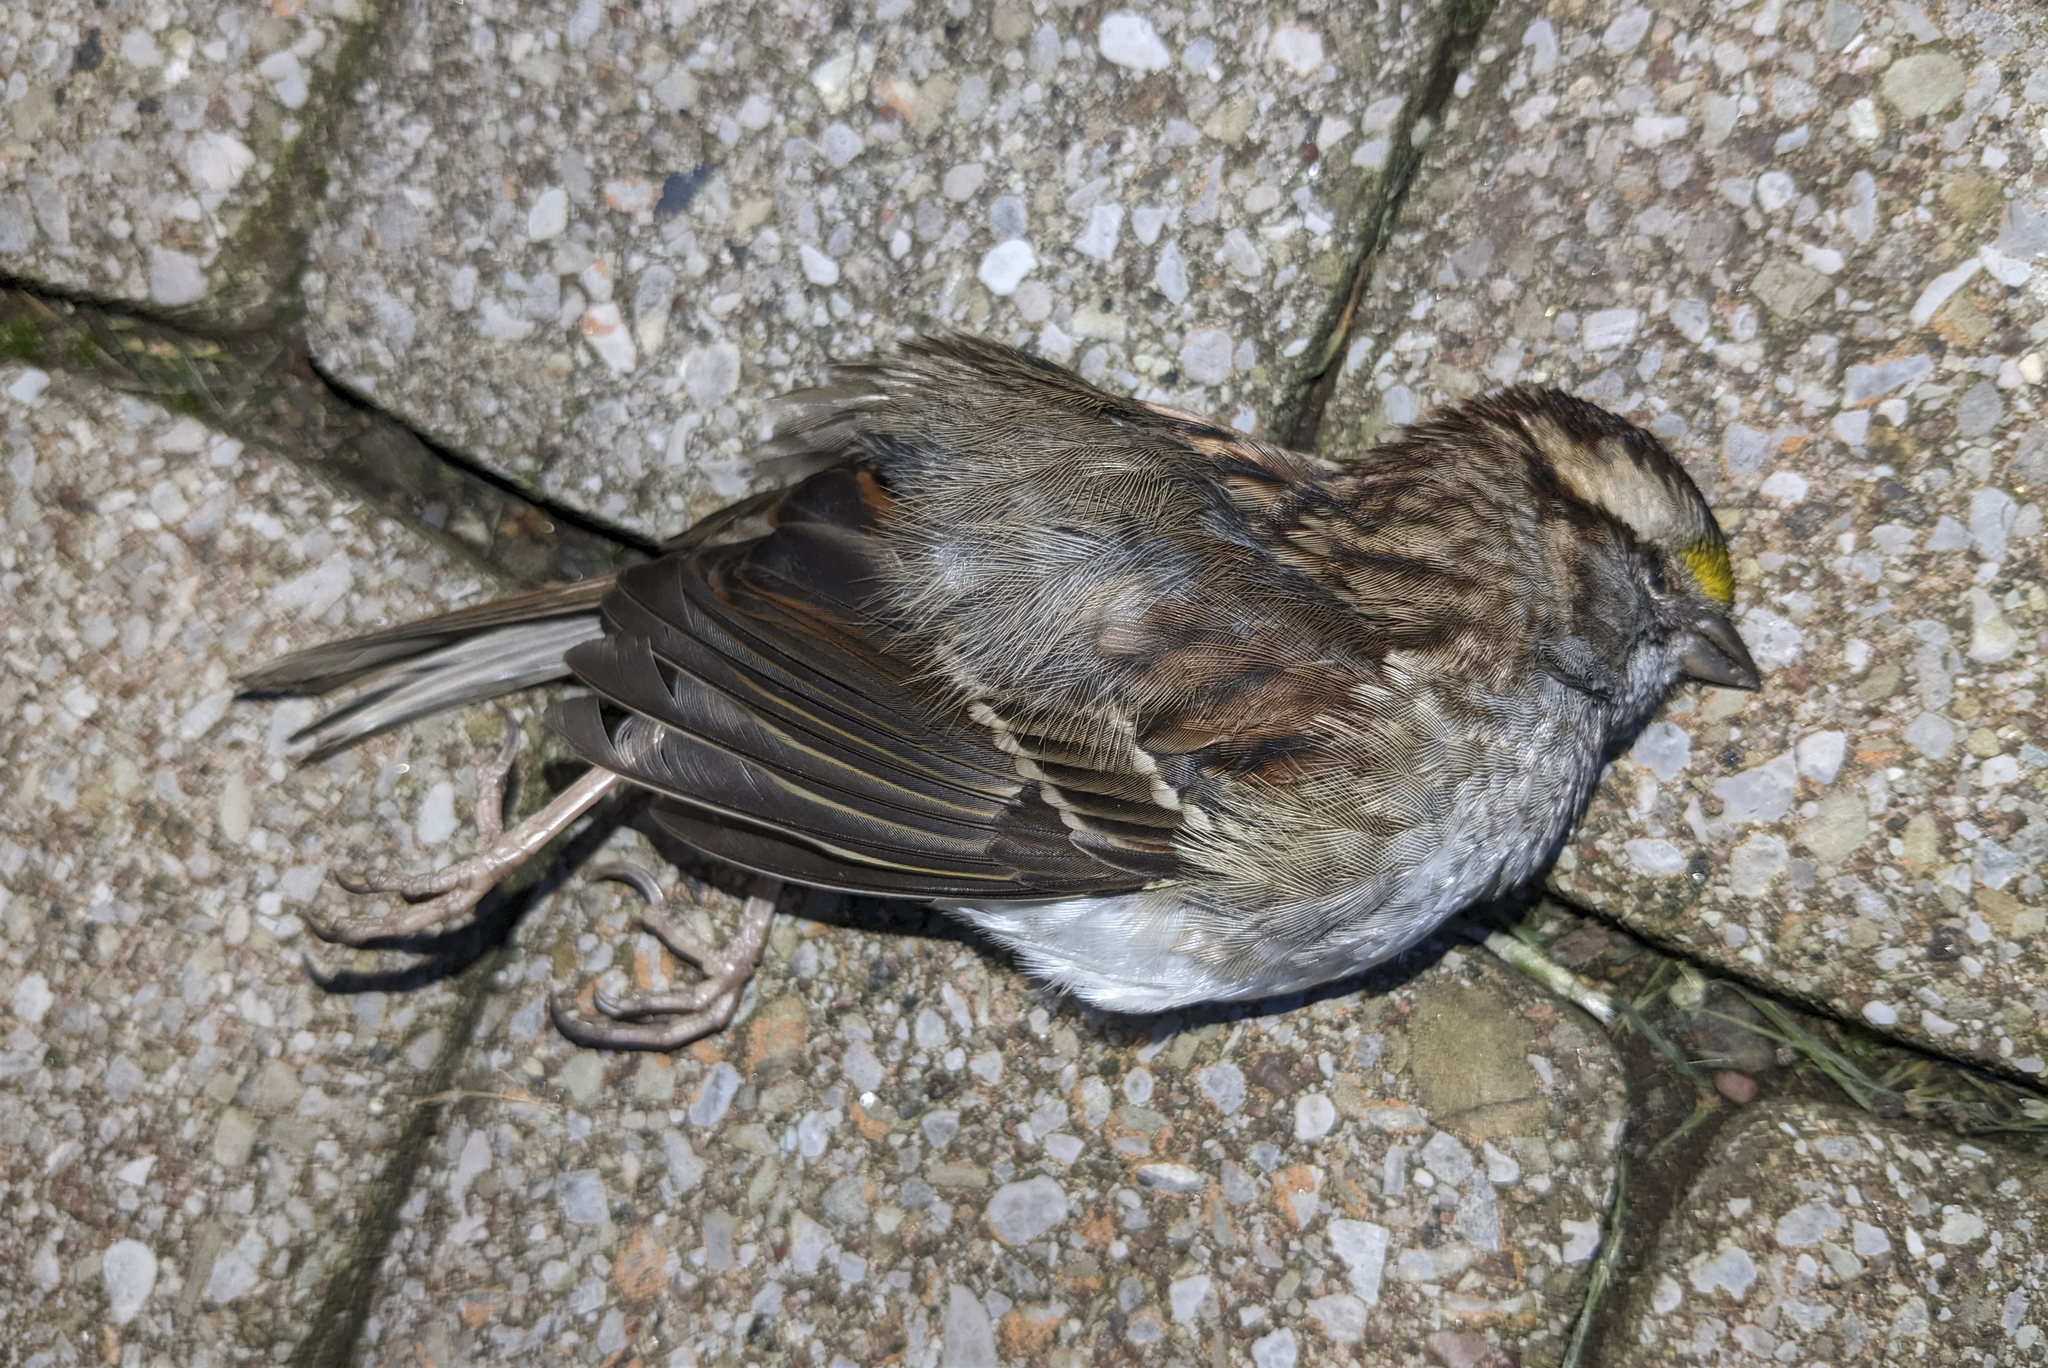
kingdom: Animalia
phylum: Chordata
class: Aves
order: Passeriformes
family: Passerellidae
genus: Zonotrichia
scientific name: Zonotrichia albicollis
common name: White-throated sparrow
